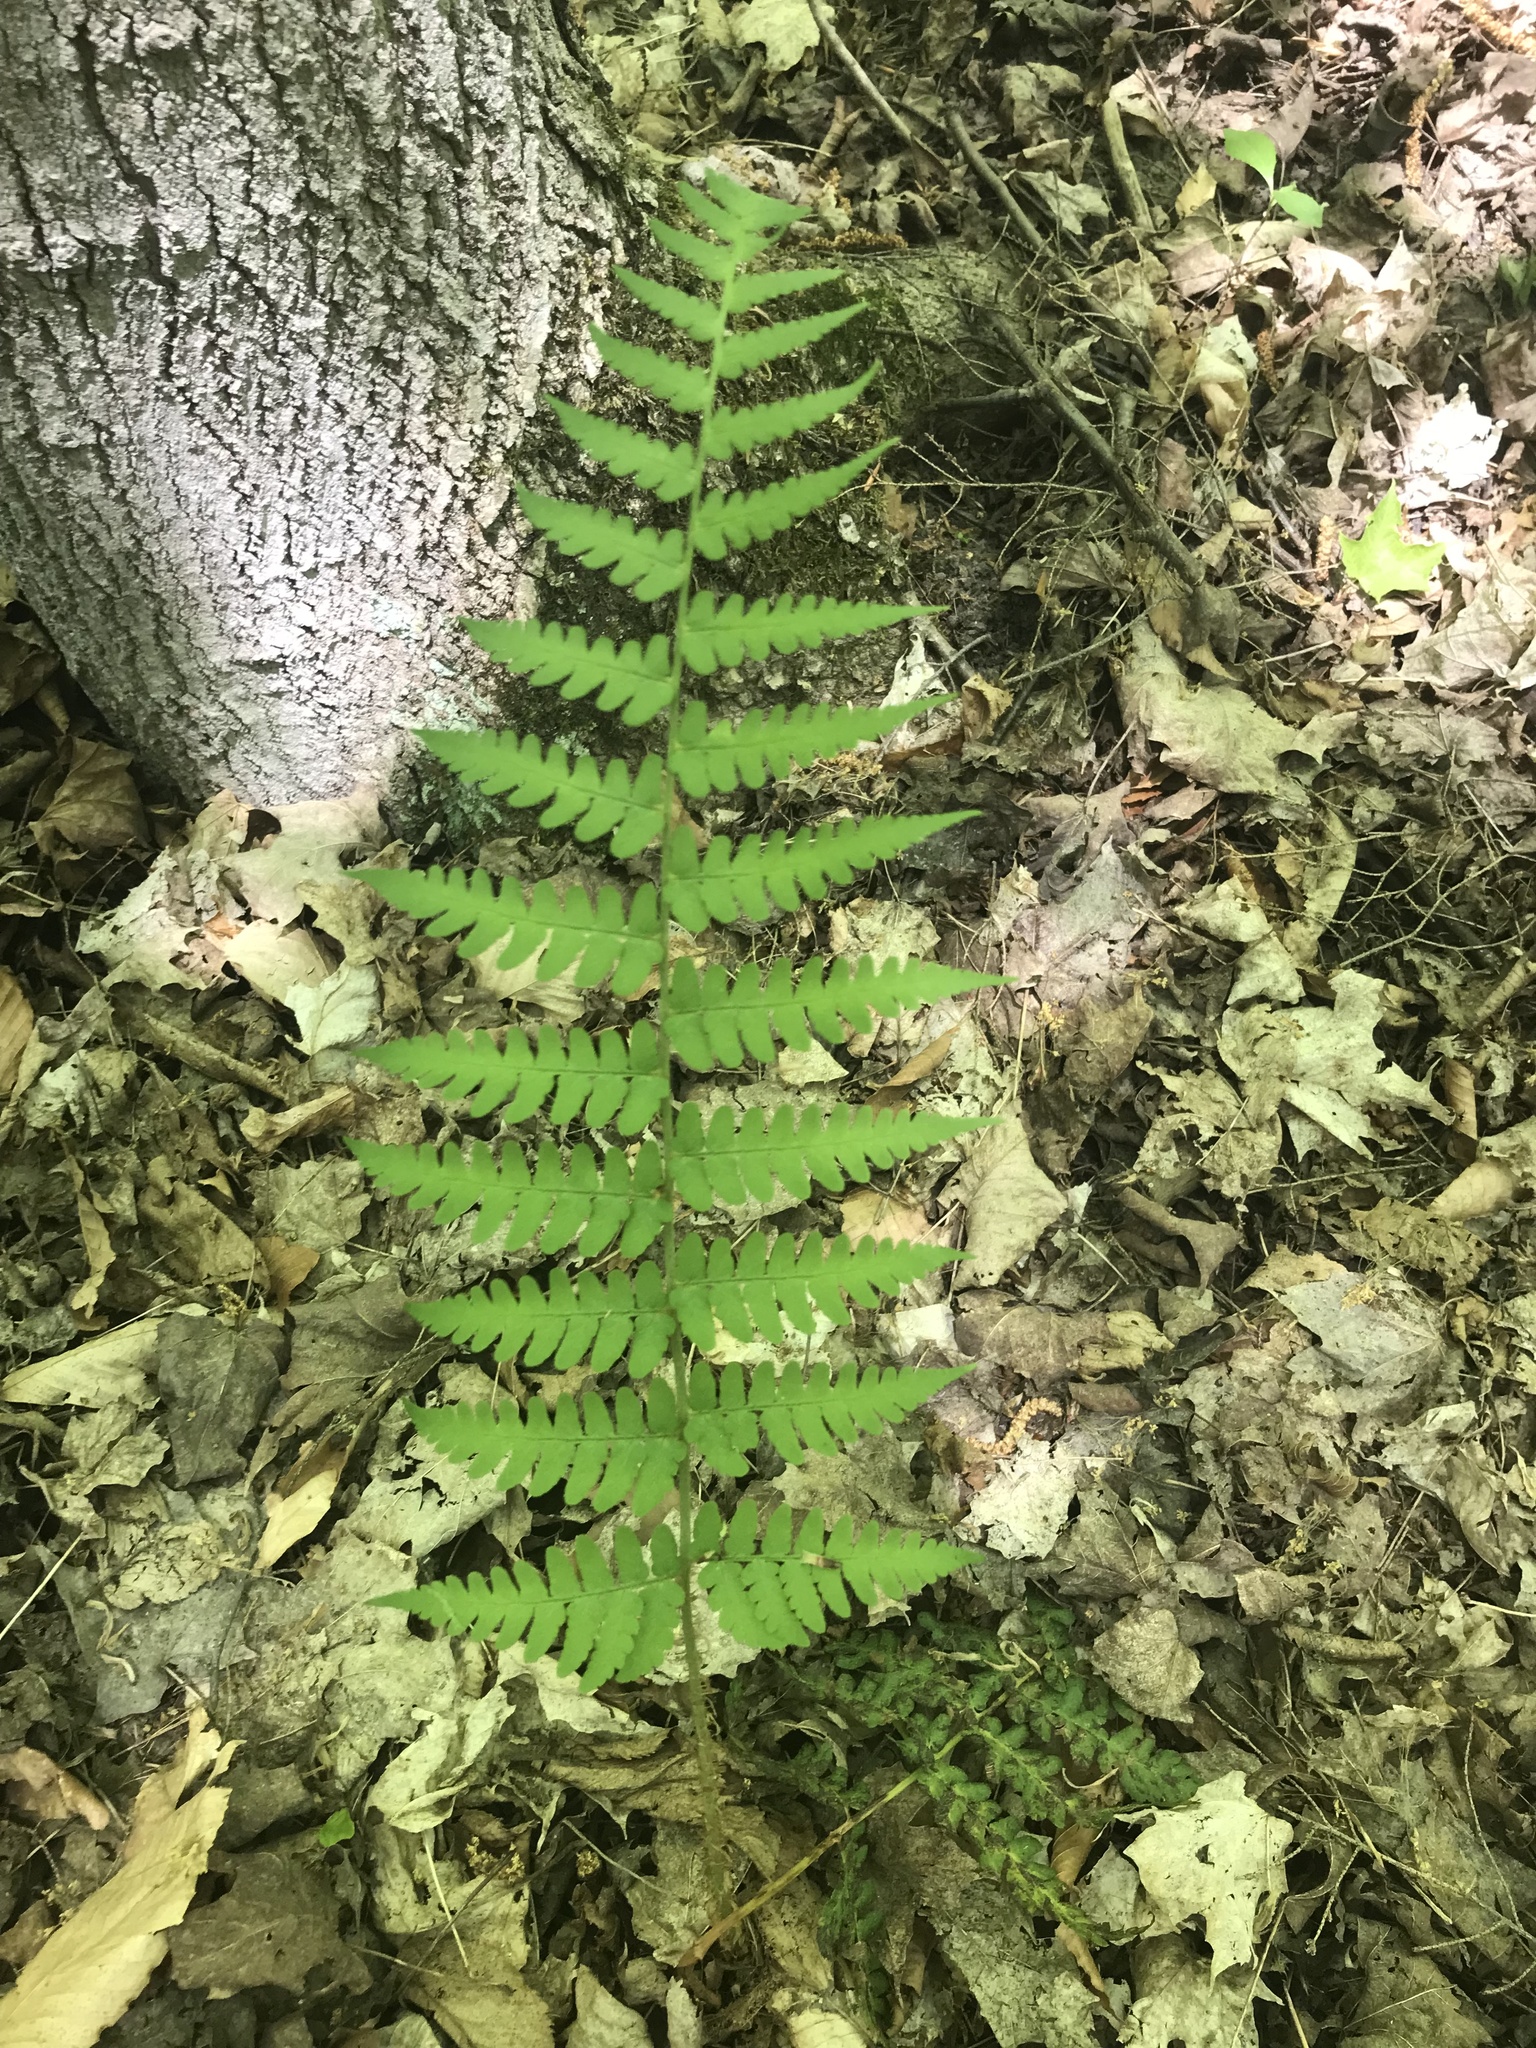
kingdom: Plantae
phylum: Tracheophyta
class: Polypodiopsida
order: Polypodiales
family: Dryopteridaceae
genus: Dryopteris
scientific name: Dryopteris marginalis
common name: Marginal wood fern
